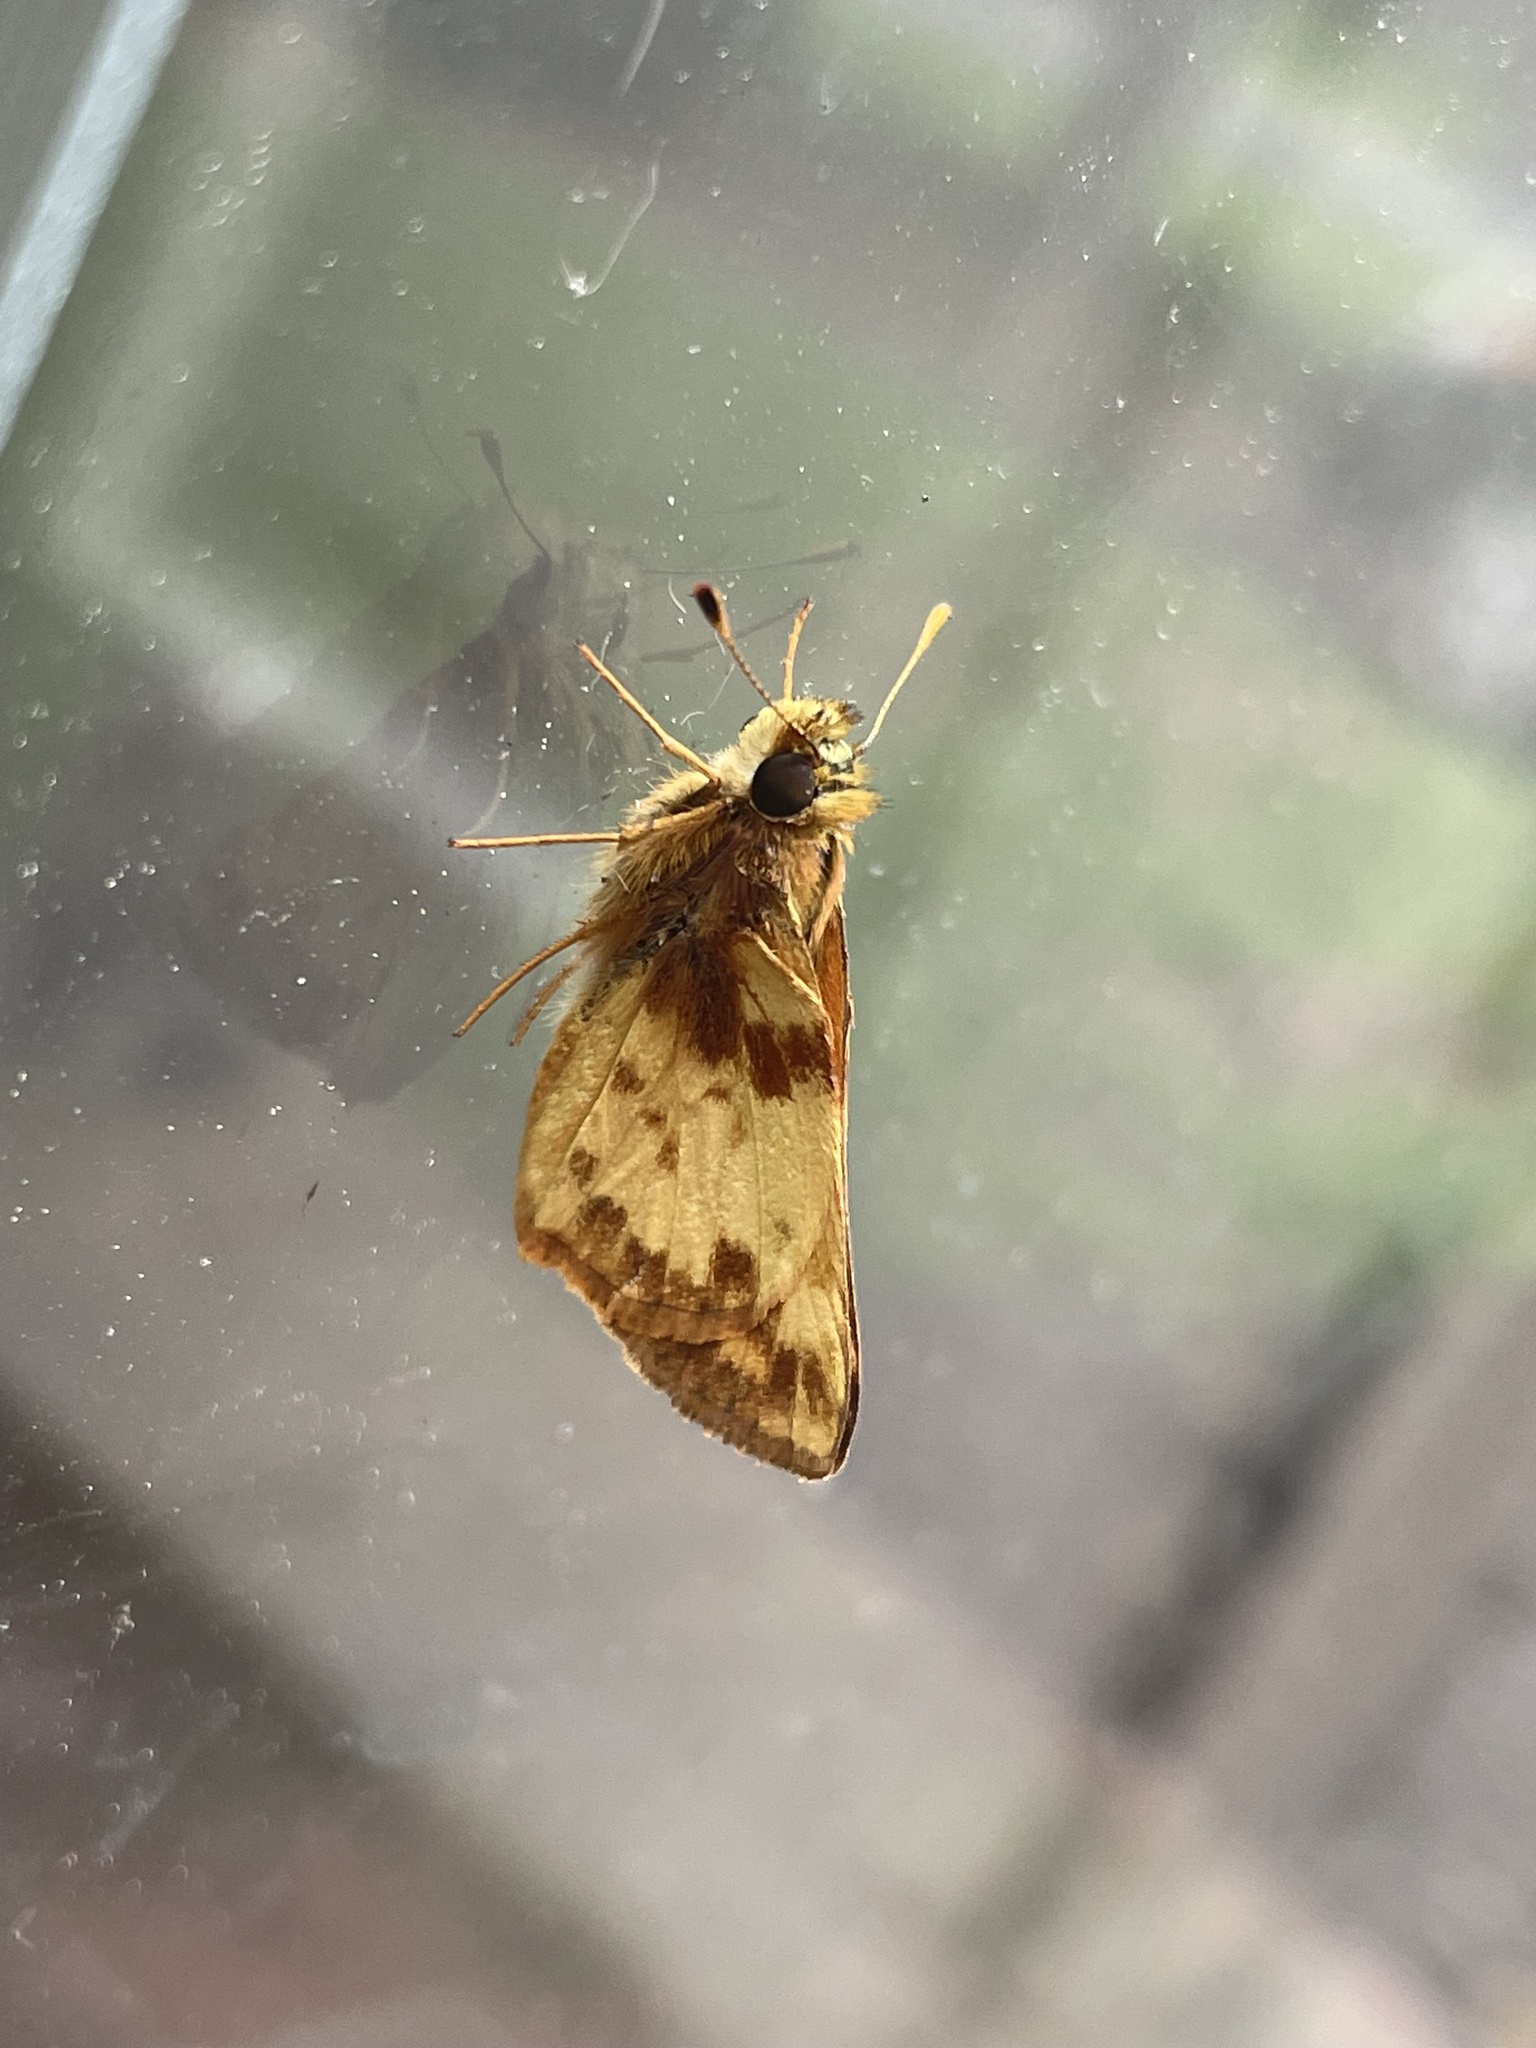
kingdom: Animalia
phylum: Arthropoda
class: Insecta
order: Lepidoptera
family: Hesperiidae
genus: Lon
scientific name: Lon zabulon
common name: Zabulon skipper
